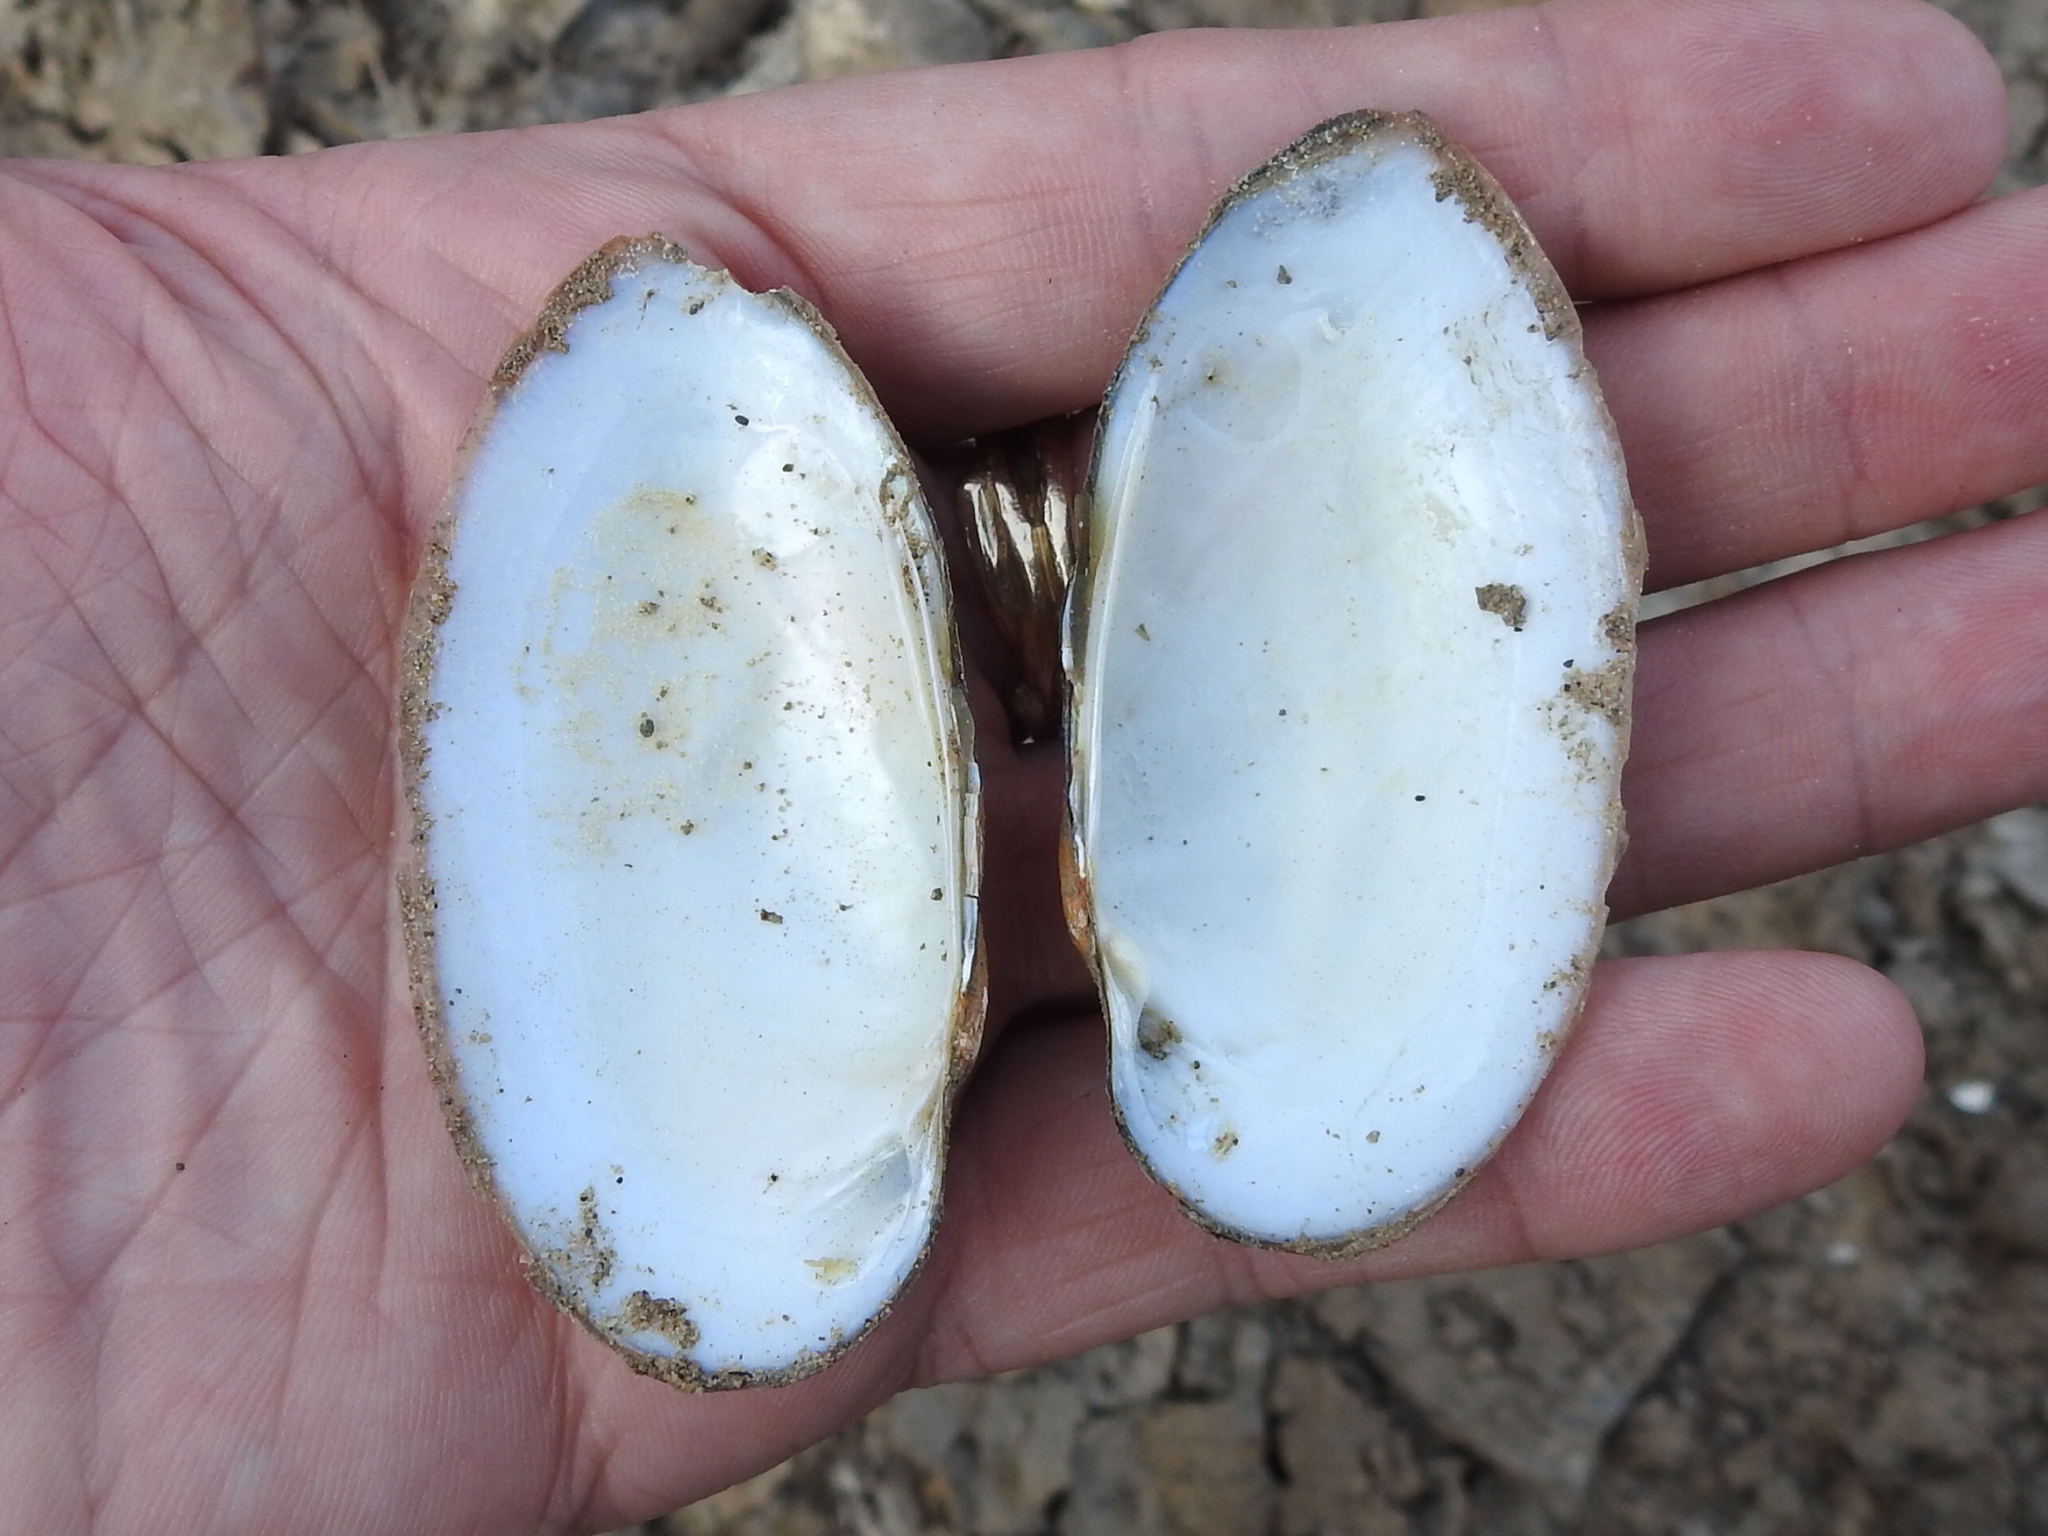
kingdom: Animalia
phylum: Mollusca
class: Bivalvia
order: Unionida
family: Unionidae
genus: Lampsilis
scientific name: Lampsilis teres
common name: Yellow sandshell
